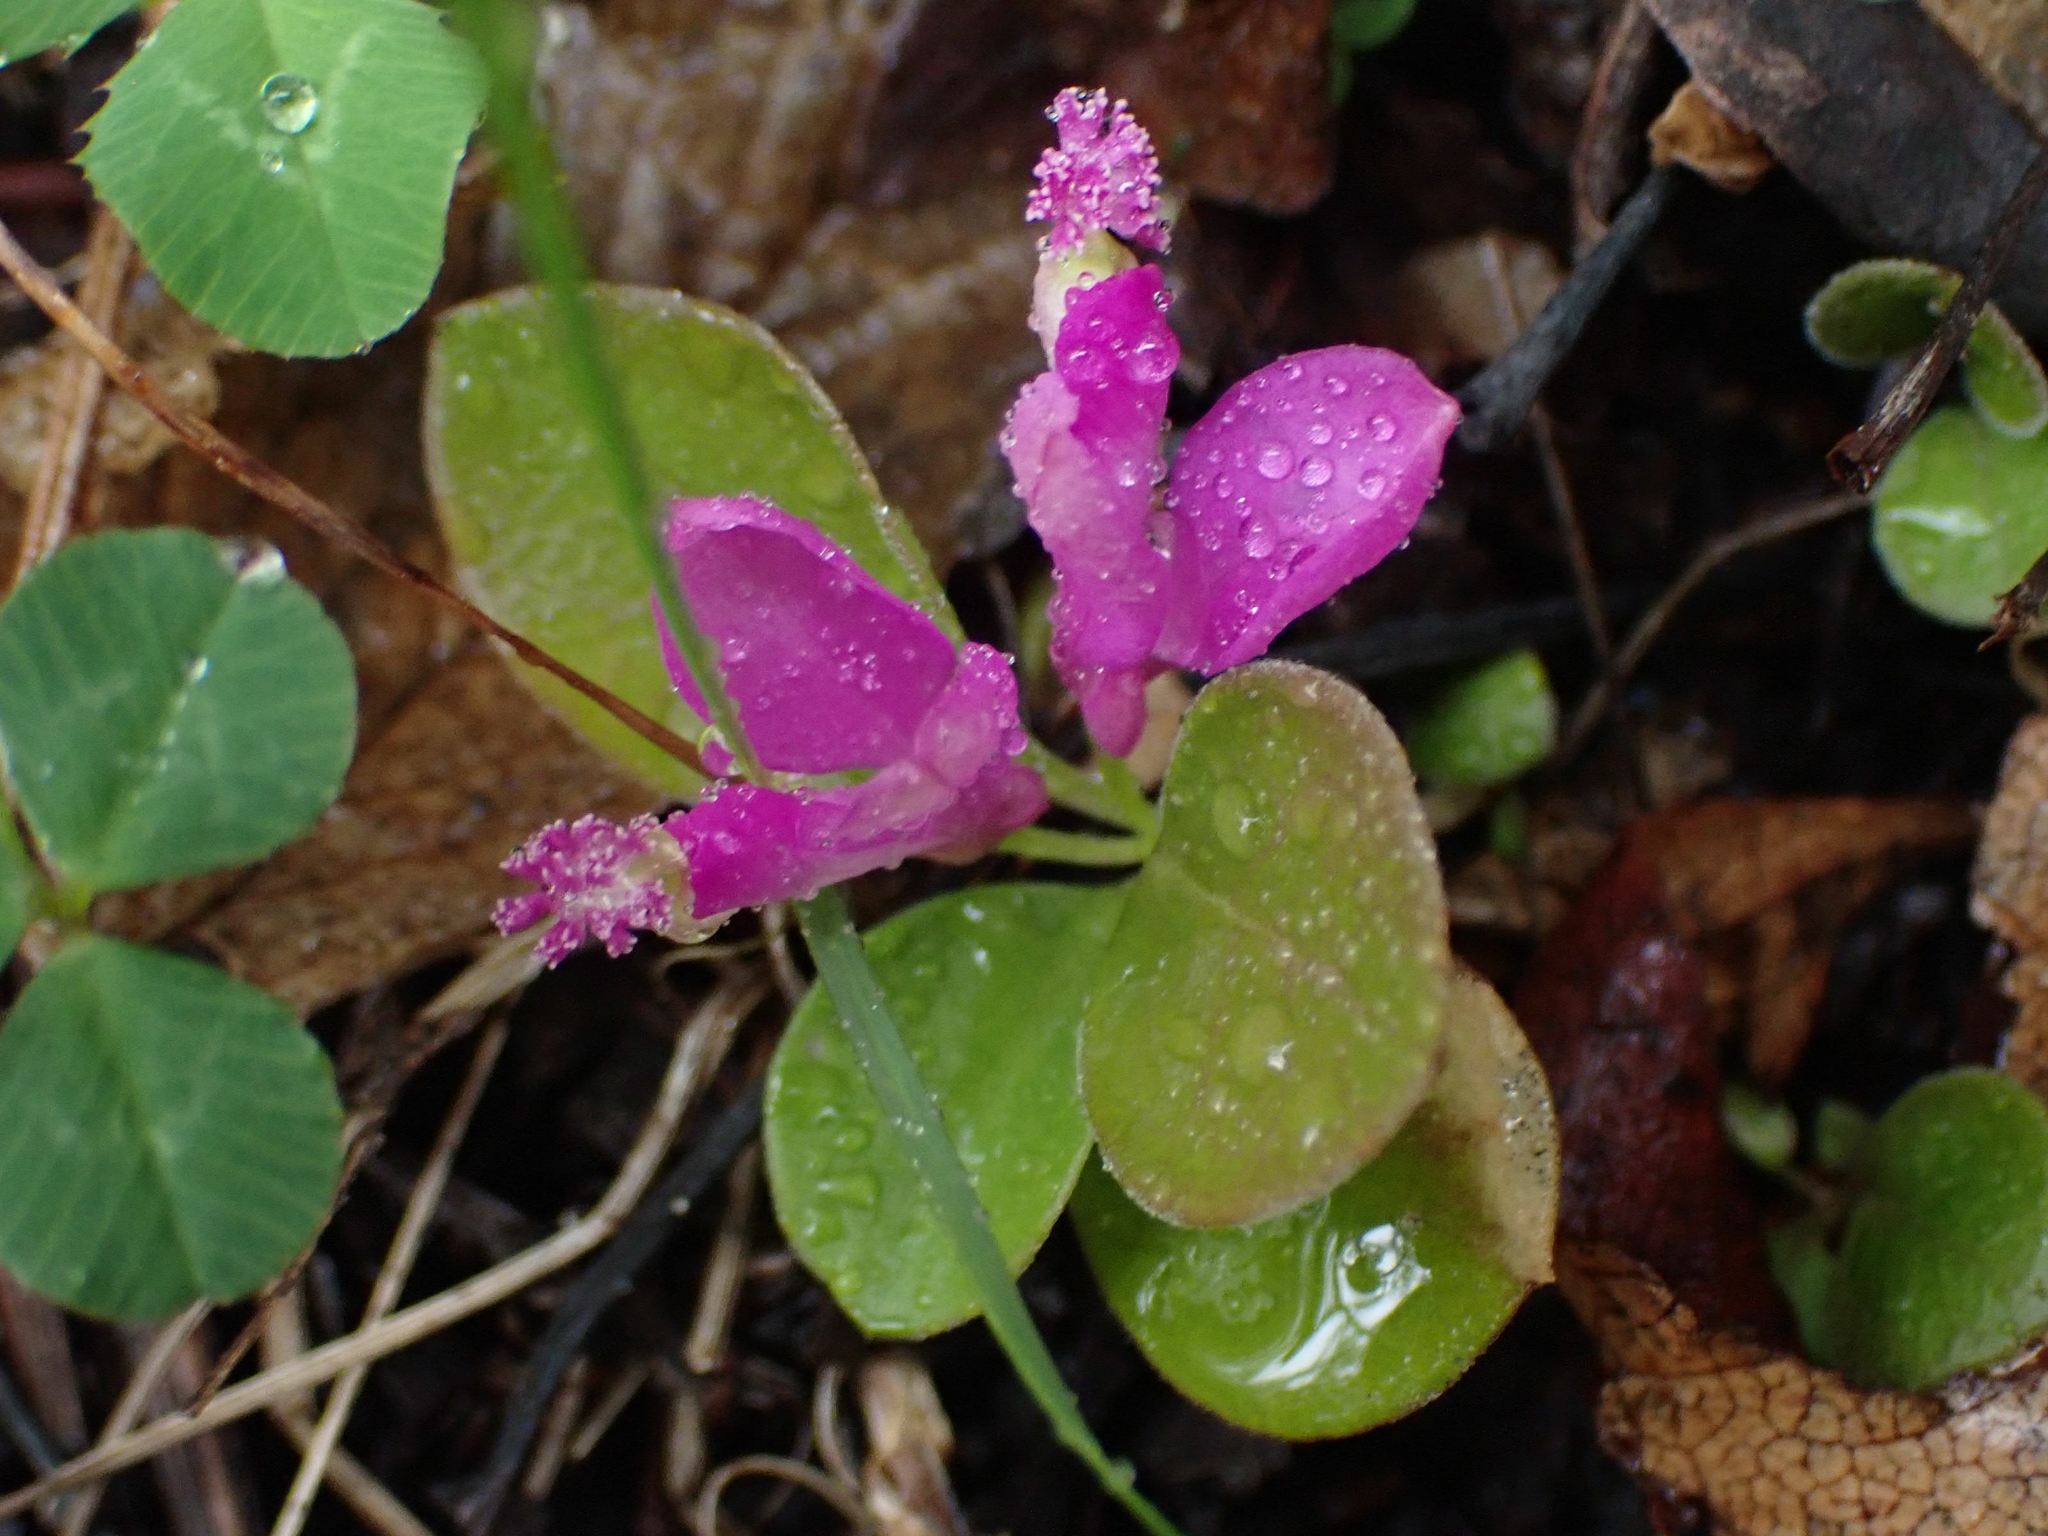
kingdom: Plantae
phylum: Tracheophyta
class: Magnoliopsida
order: Fabales
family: Polygalaceae
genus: Polygaloides
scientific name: Polygaloides paucifolia
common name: Bird-on-the-wing
